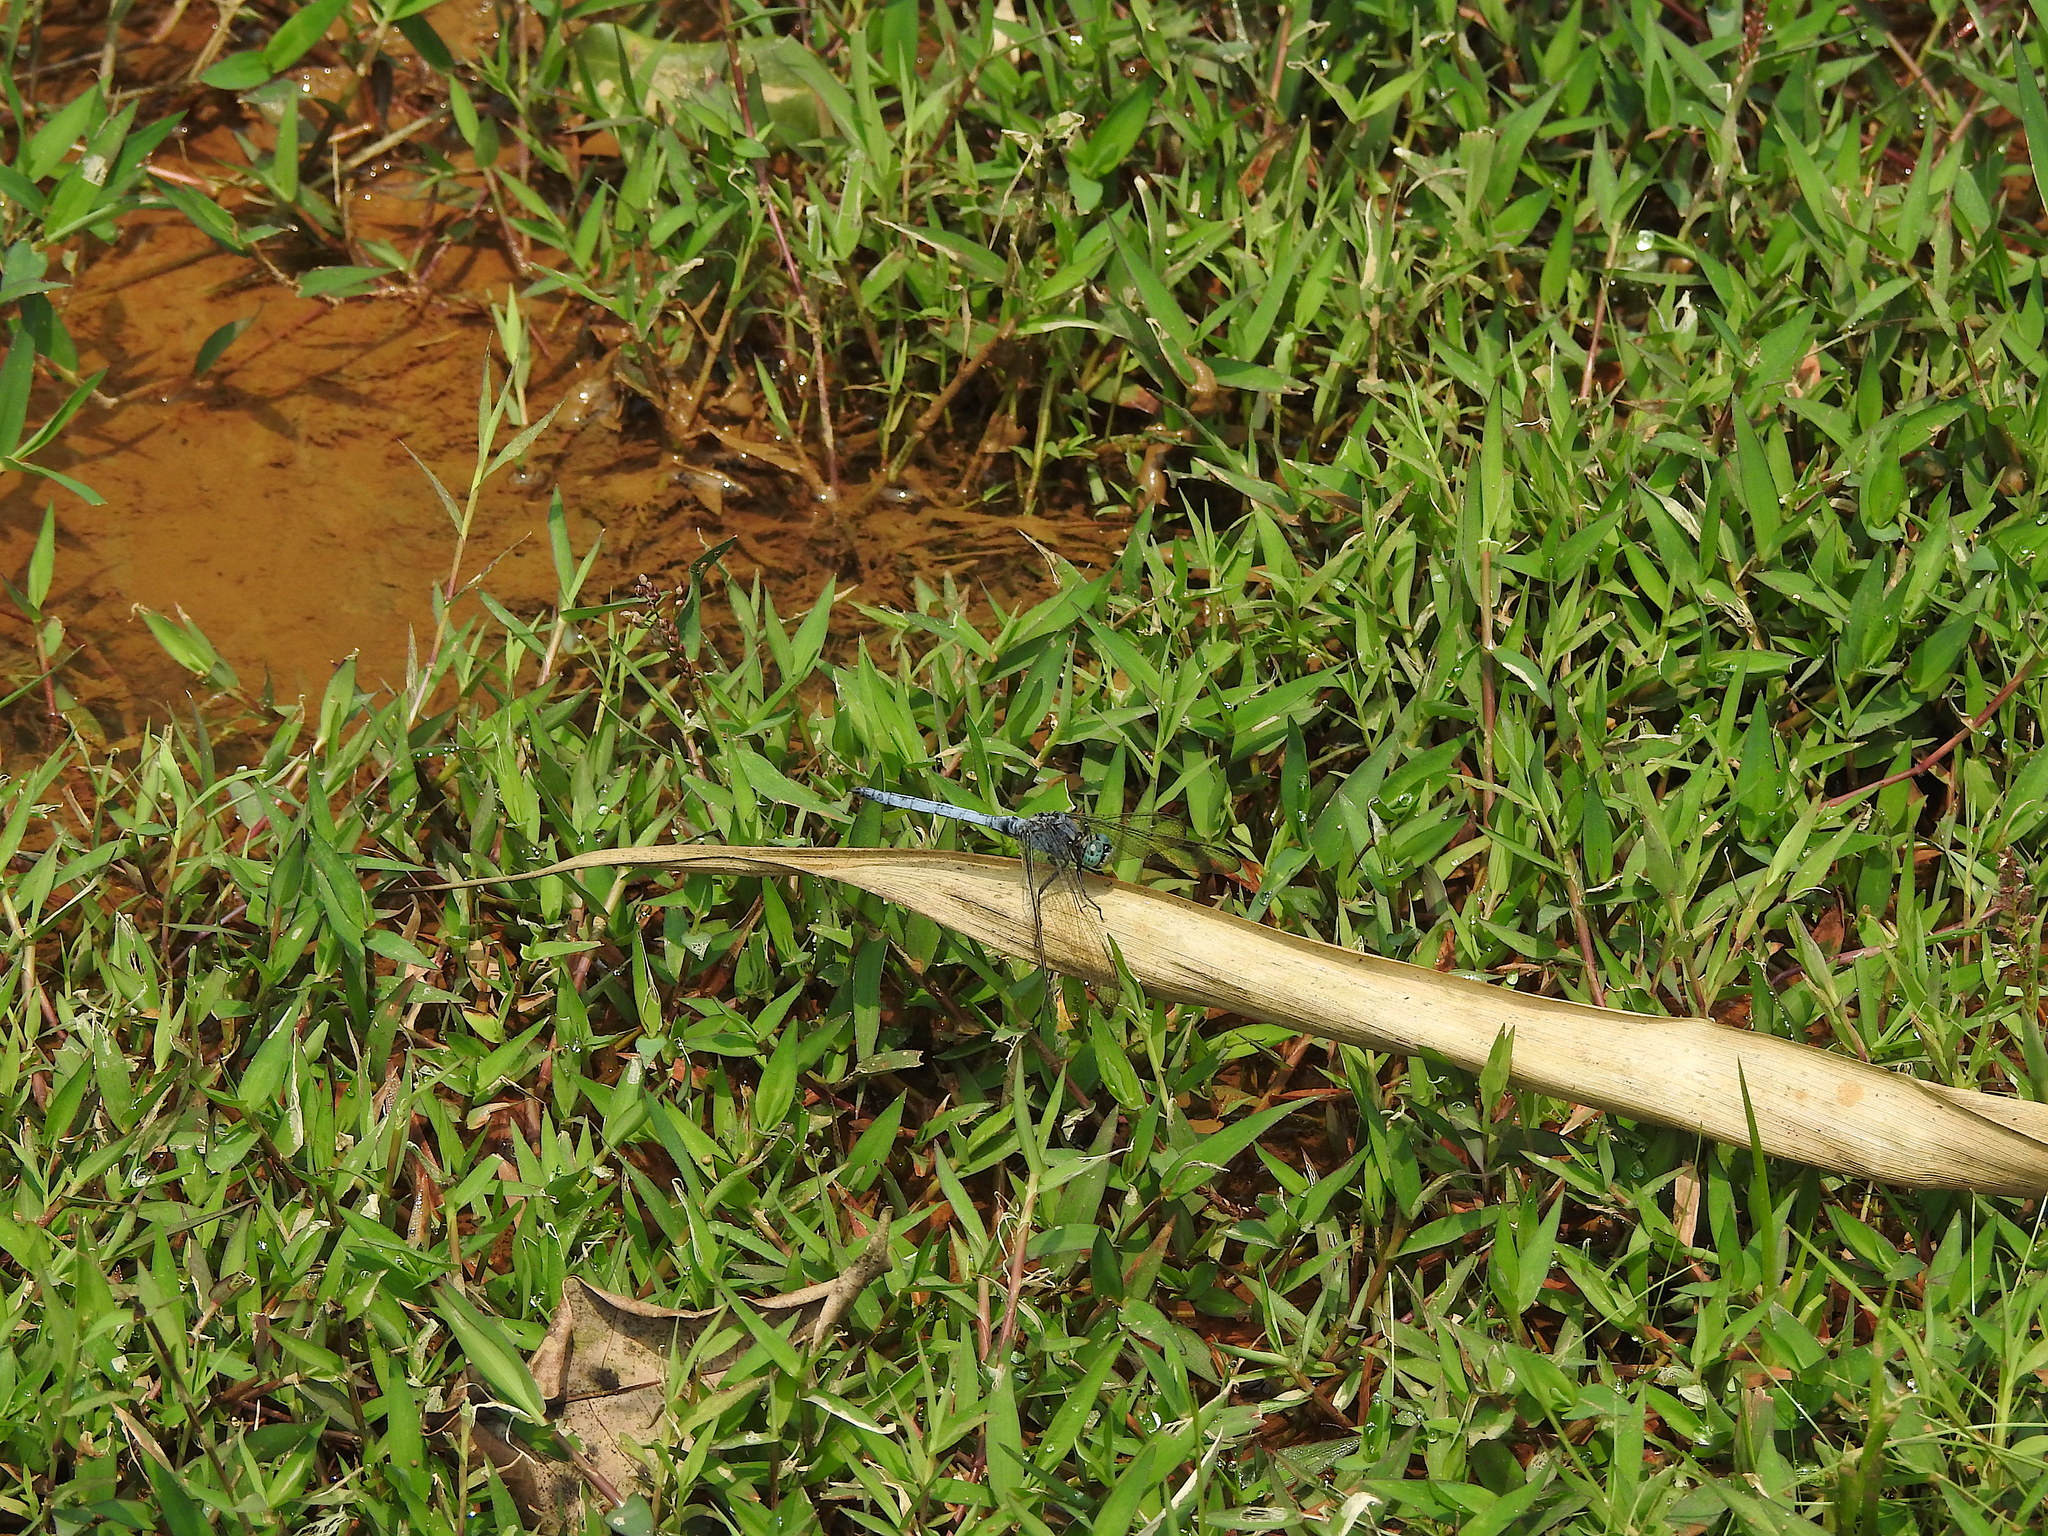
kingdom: Animalia
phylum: Arthropoda
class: Insecta
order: Odonata
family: Libellulidae
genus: Orthetrum
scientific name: Orthetrum luzonicum
